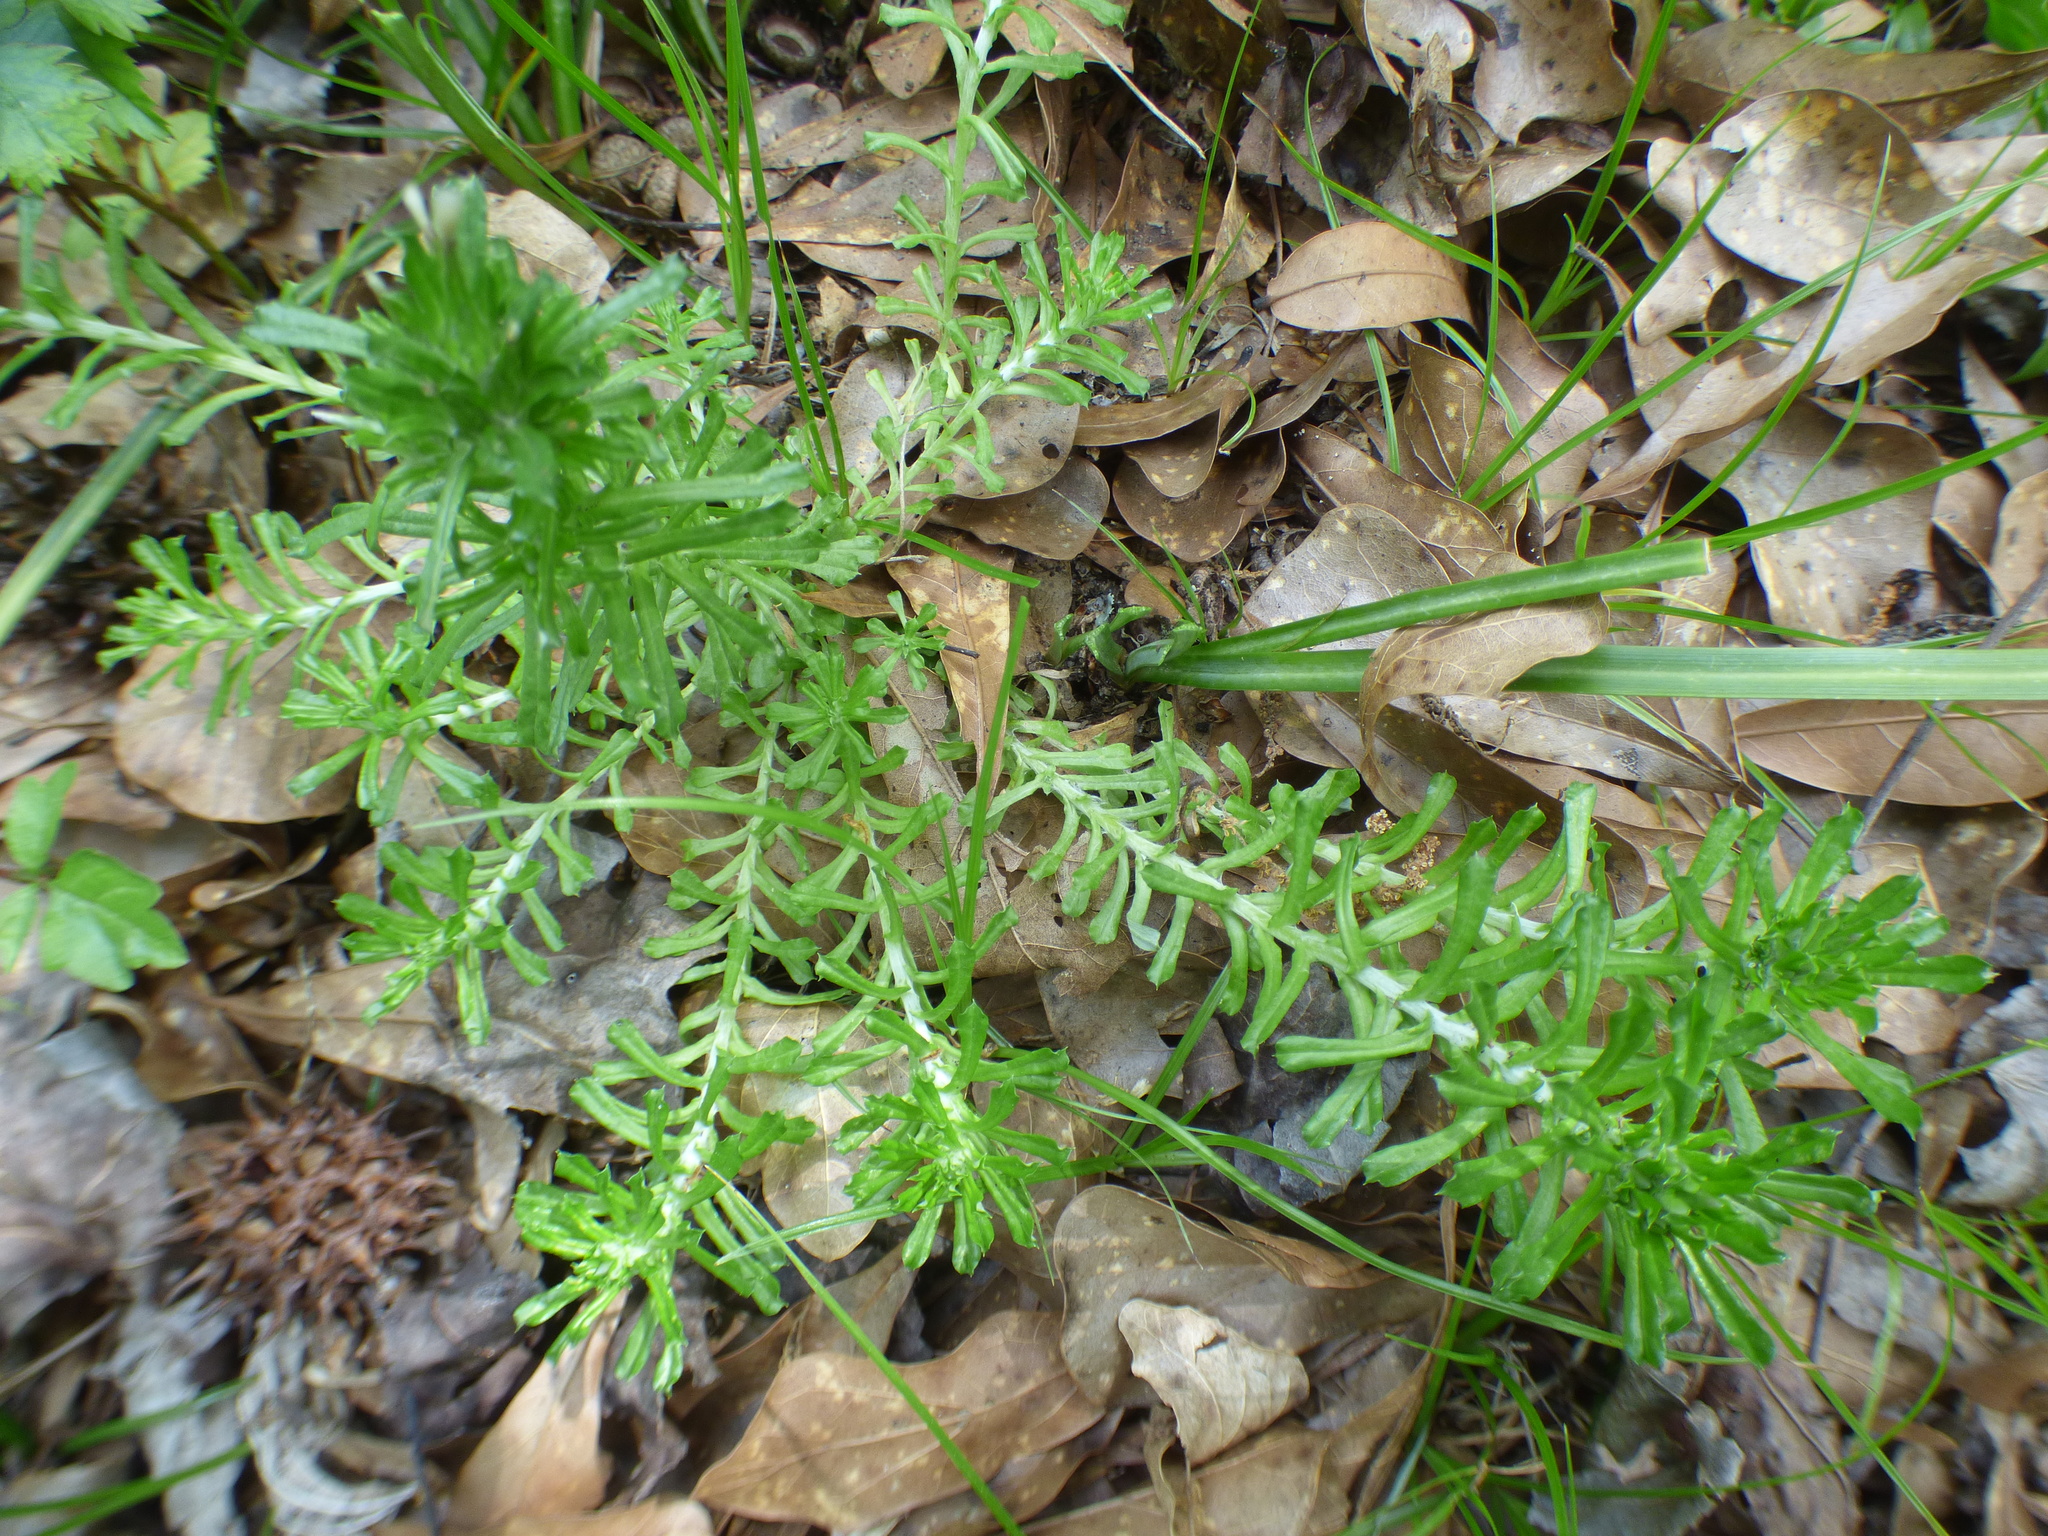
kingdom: Plantae
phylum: Tracheophyta
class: Magnoliopsida
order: Asterales
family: Asteraceae
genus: Facelis
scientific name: Facelis retusa
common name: Annual trampweed
